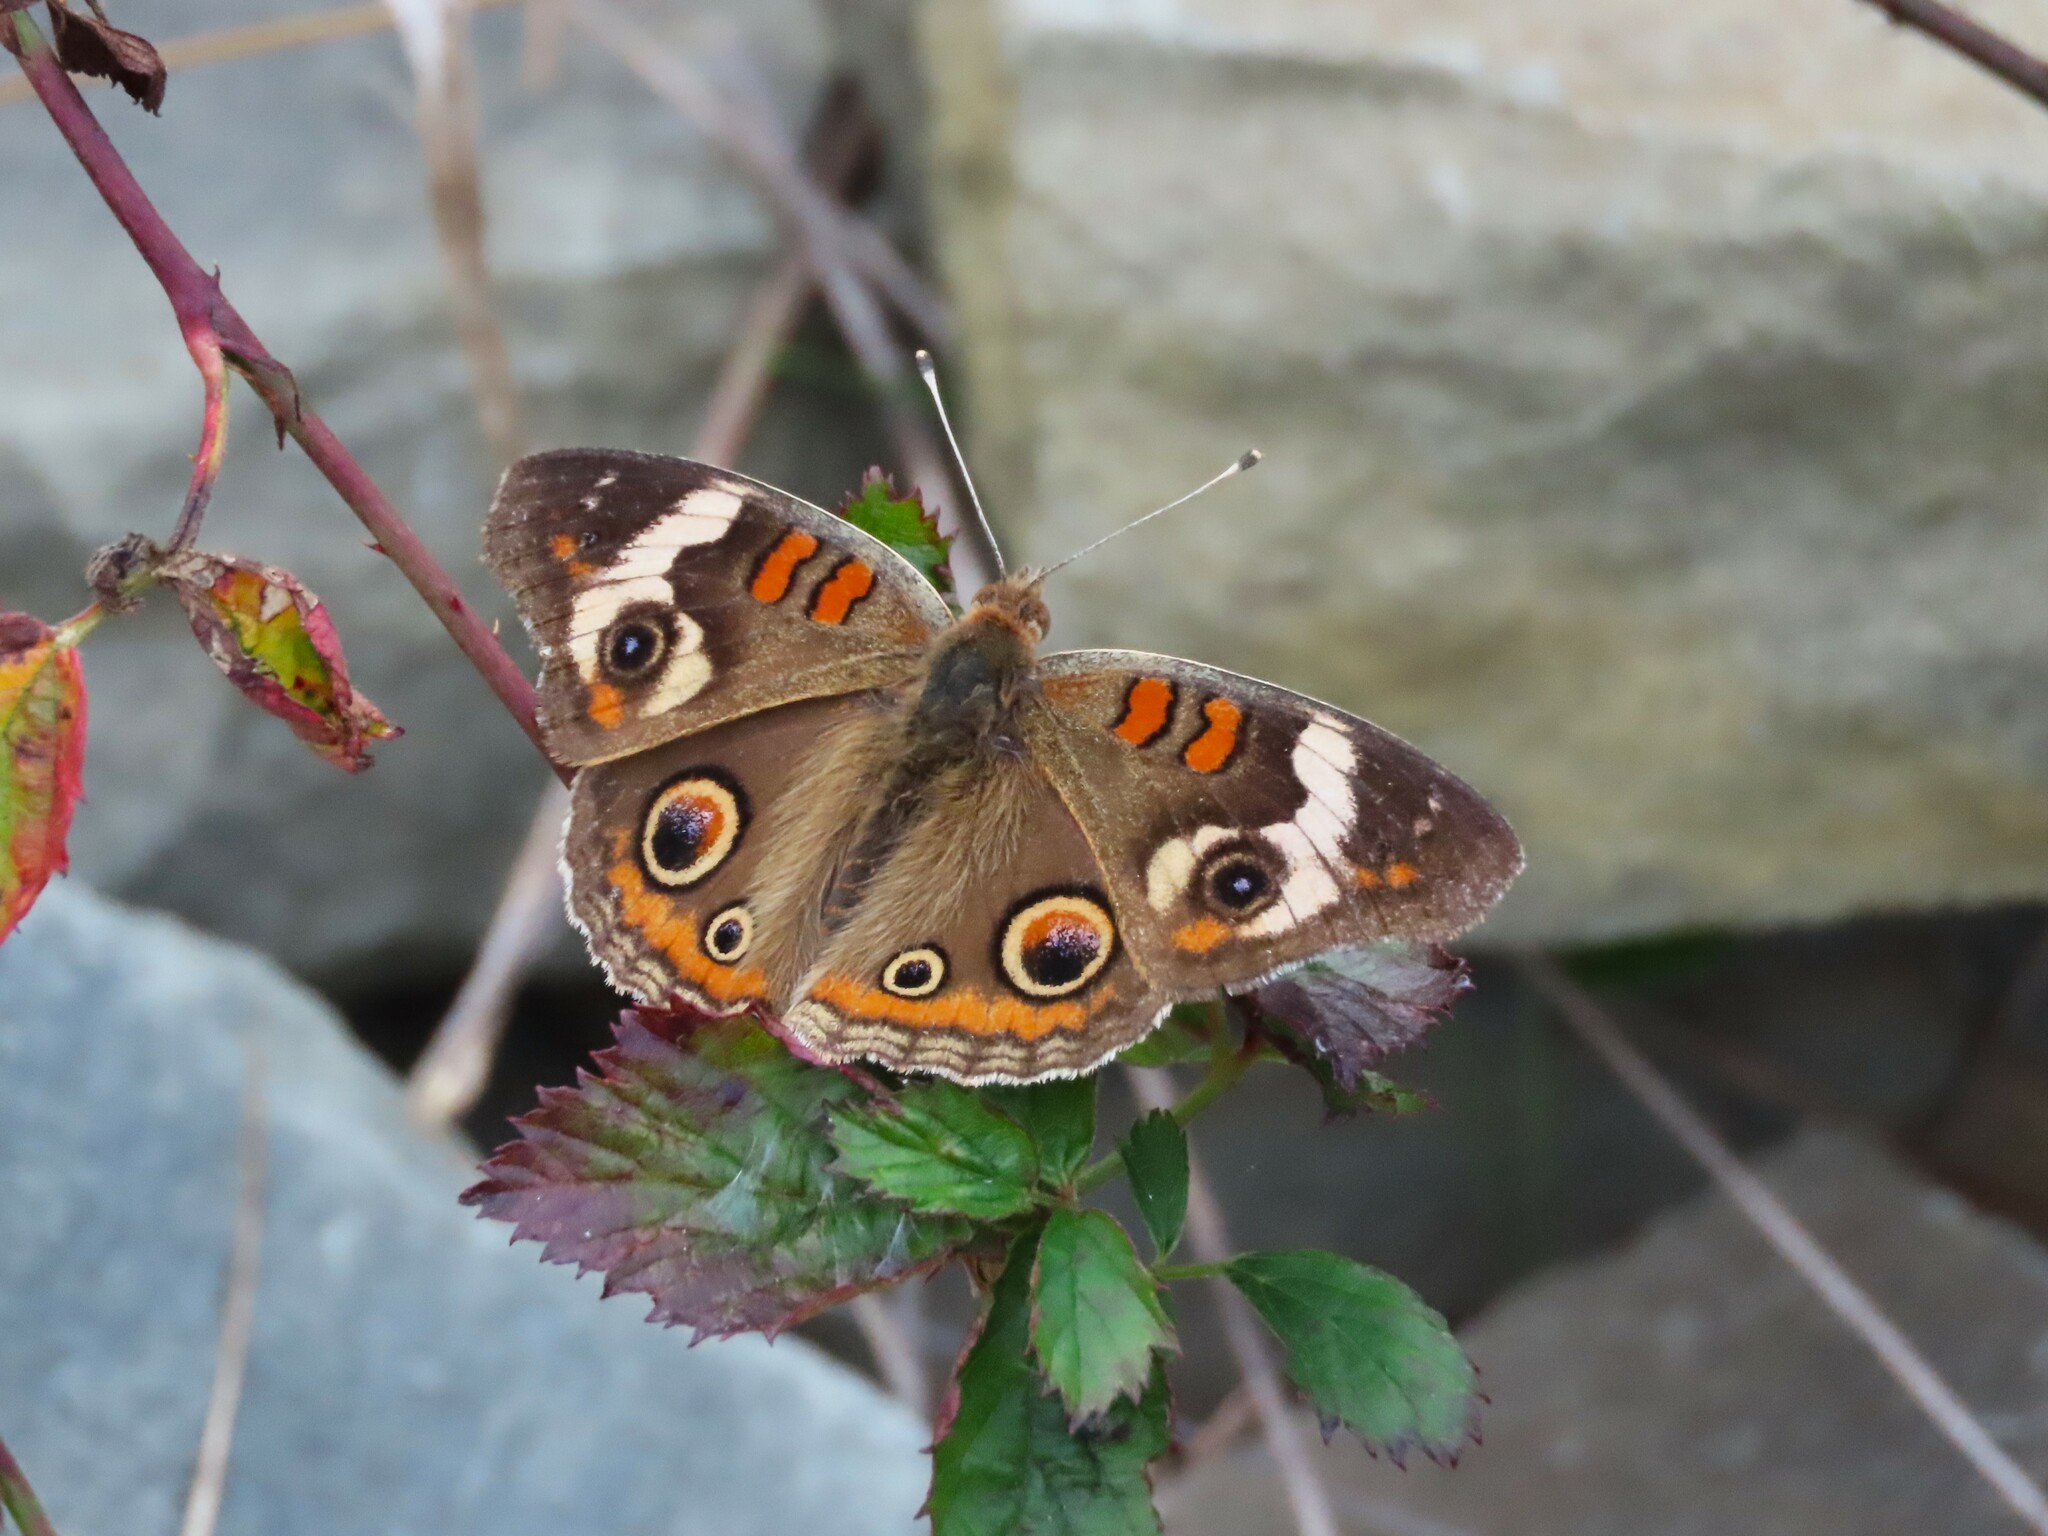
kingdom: Animalia
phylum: Arthropoda
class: Insecta
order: Lepidoptera
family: Nymphalidae
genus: Junonia
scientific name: Junonia coenia
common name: Common buckeye
